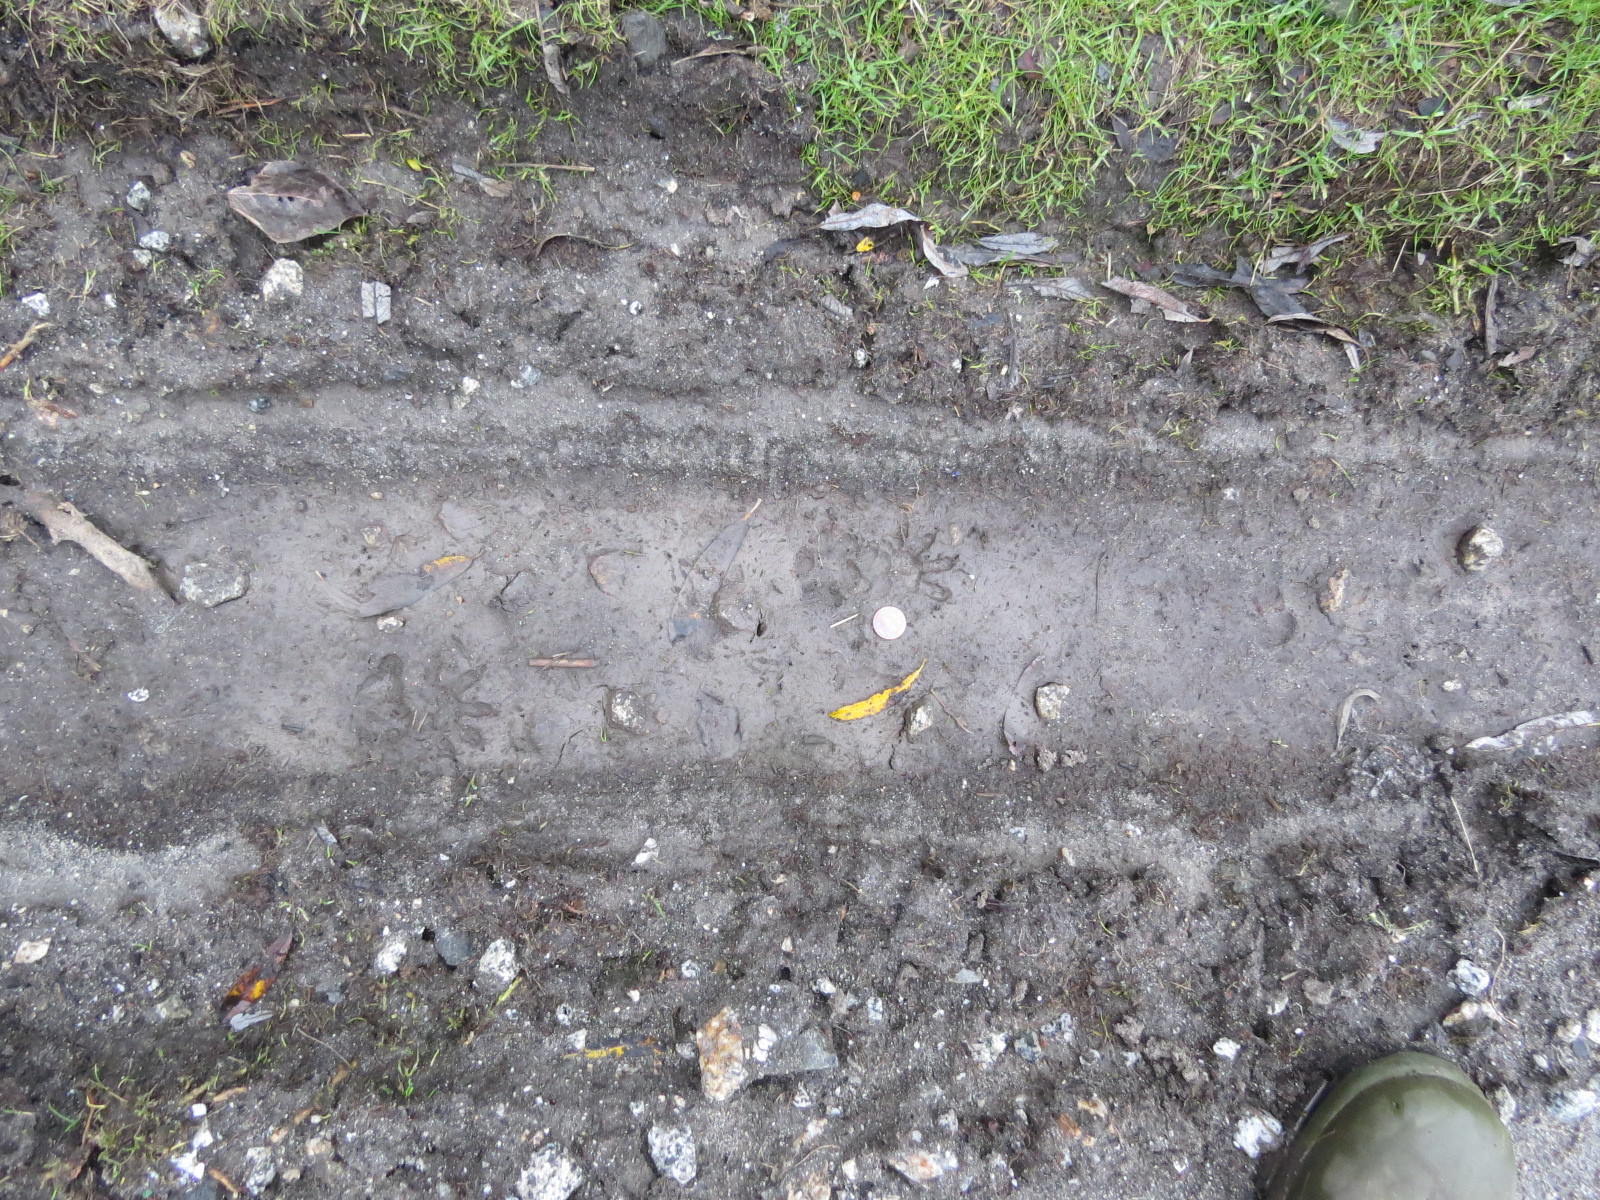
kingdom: Animalia
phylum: Chordata
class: Mammalia
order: Didelphimorphia
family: Didelphidae
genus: Didelphis
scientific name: Didelphis virginiana
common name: Virginia opossum
